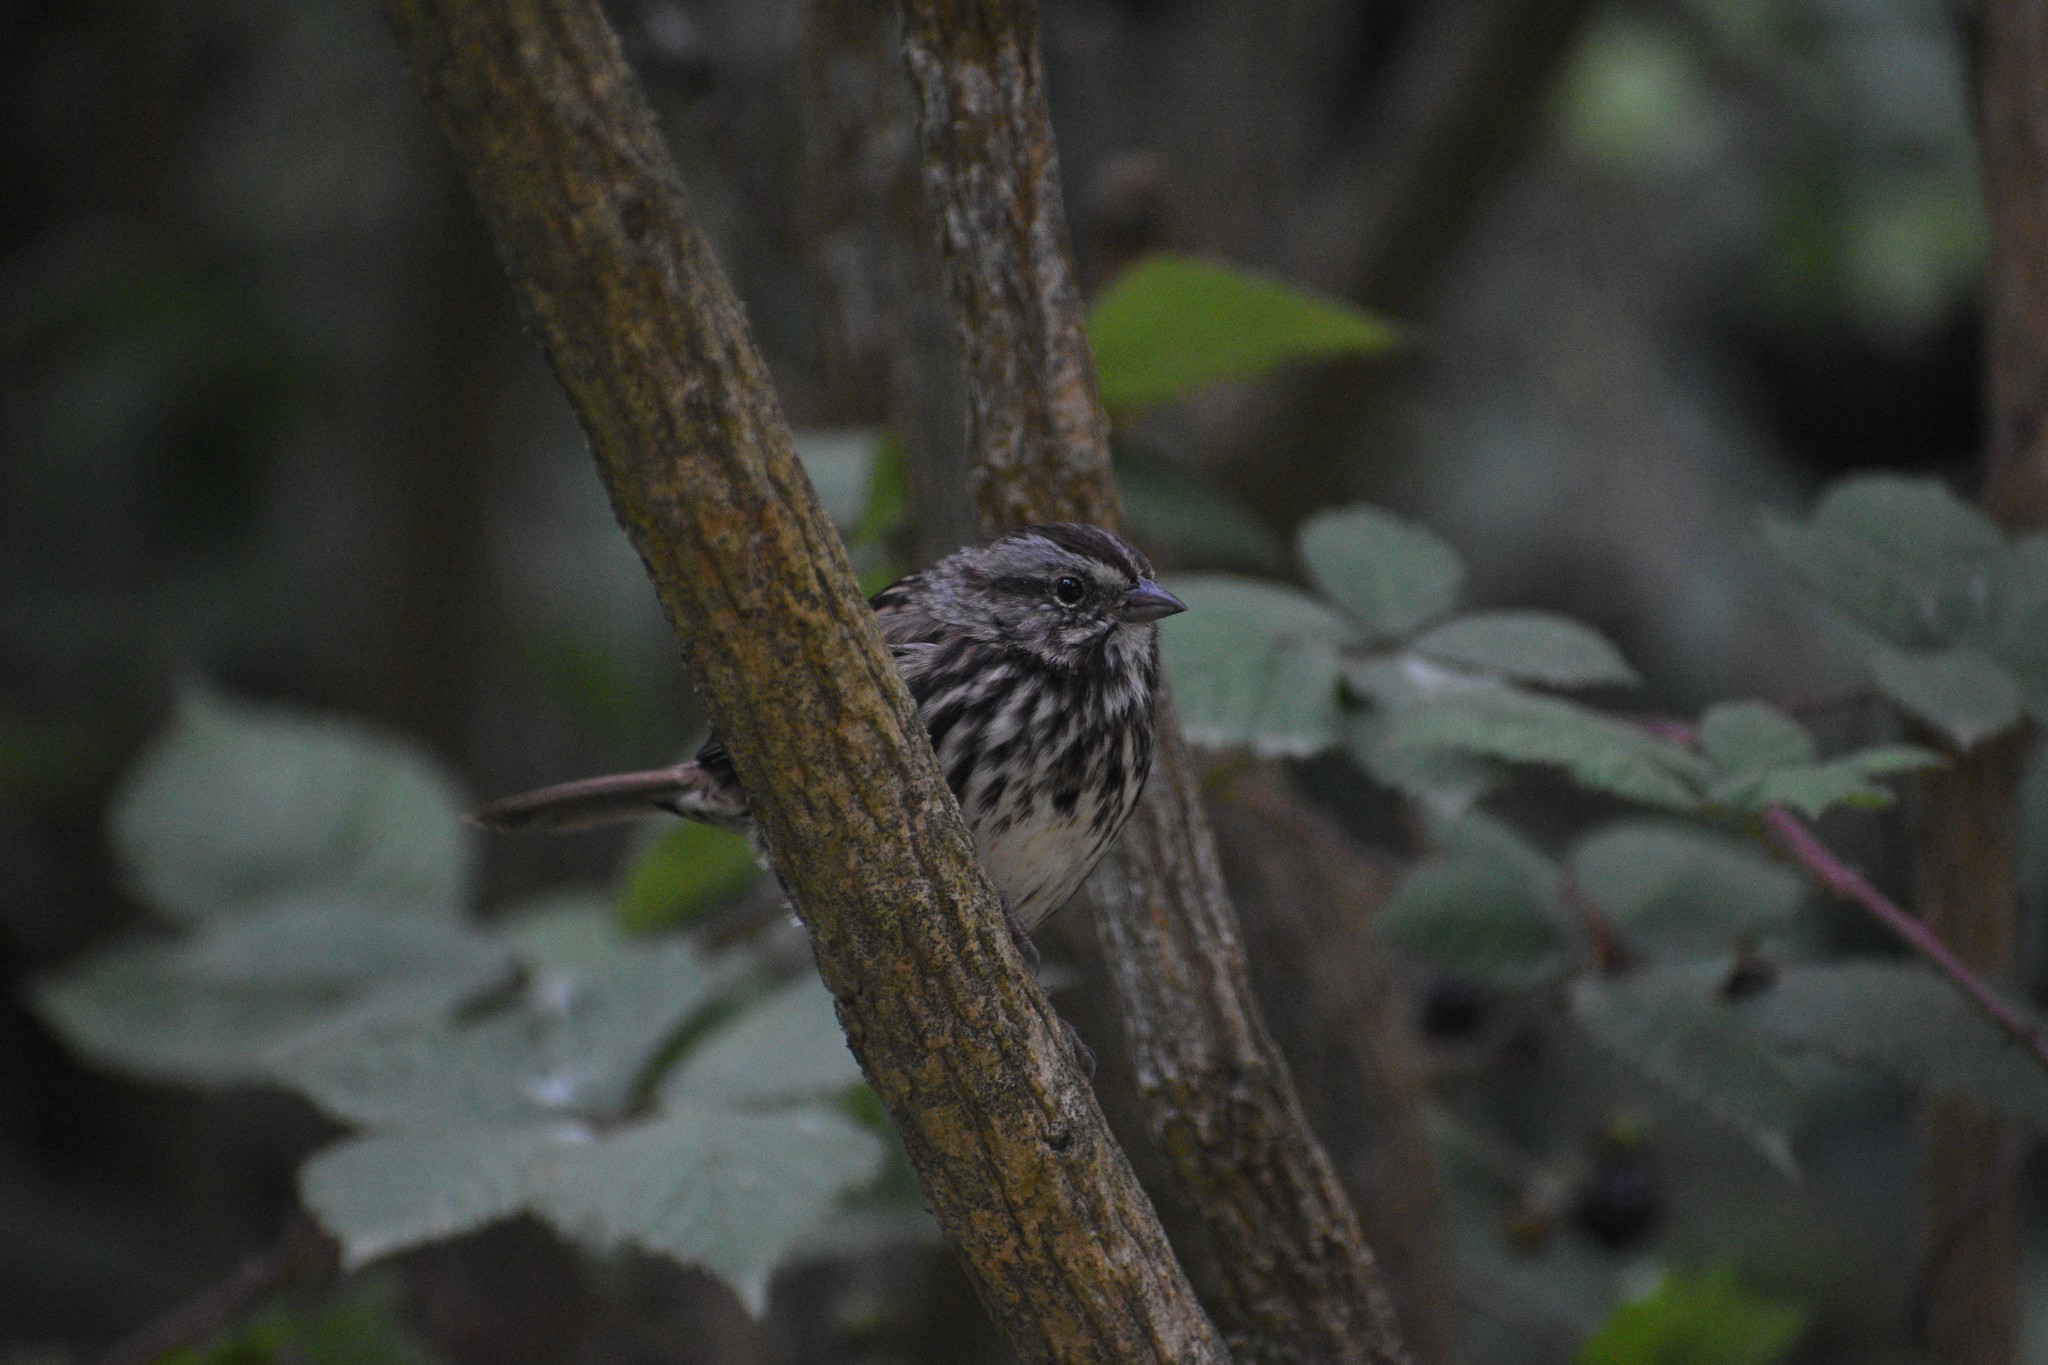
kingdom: Animalia
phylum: Chordata
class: Aves
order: Passeriformes
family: Passerellidae
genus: Melospiza
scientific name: Melospiza melodia
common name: Song sparrow
